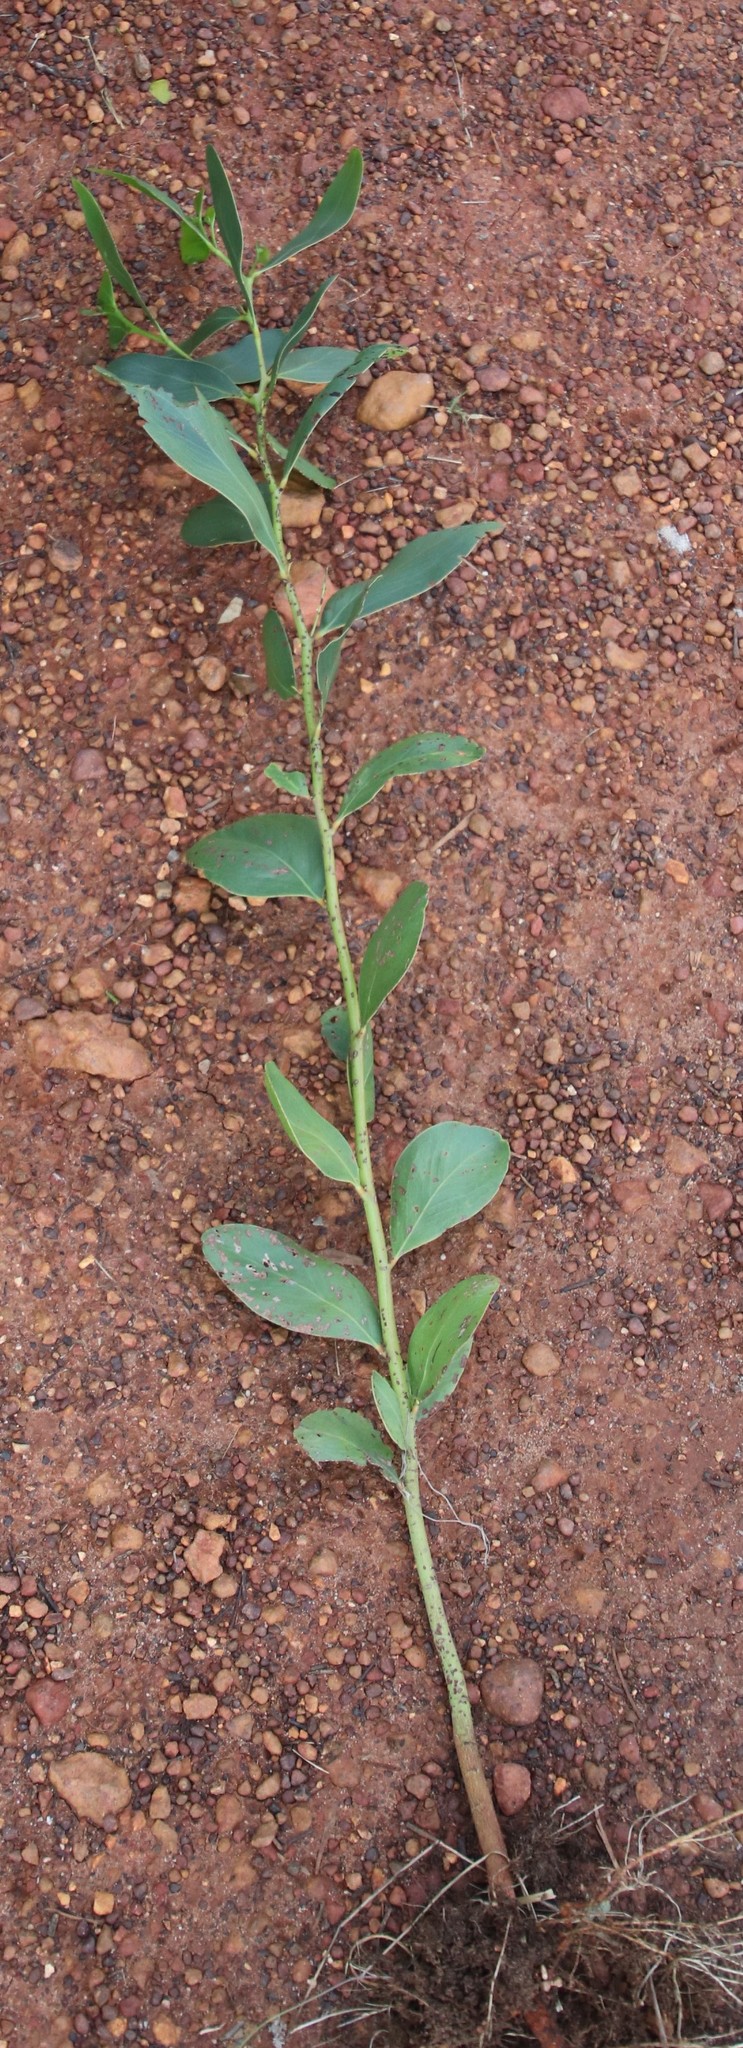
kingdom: Plantae
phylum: Tracheophyta
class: Magnoliopsida
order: Fabales
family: Fabaceae
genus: Acacia
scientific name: Acacia pycnantha
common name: Golden wattle
